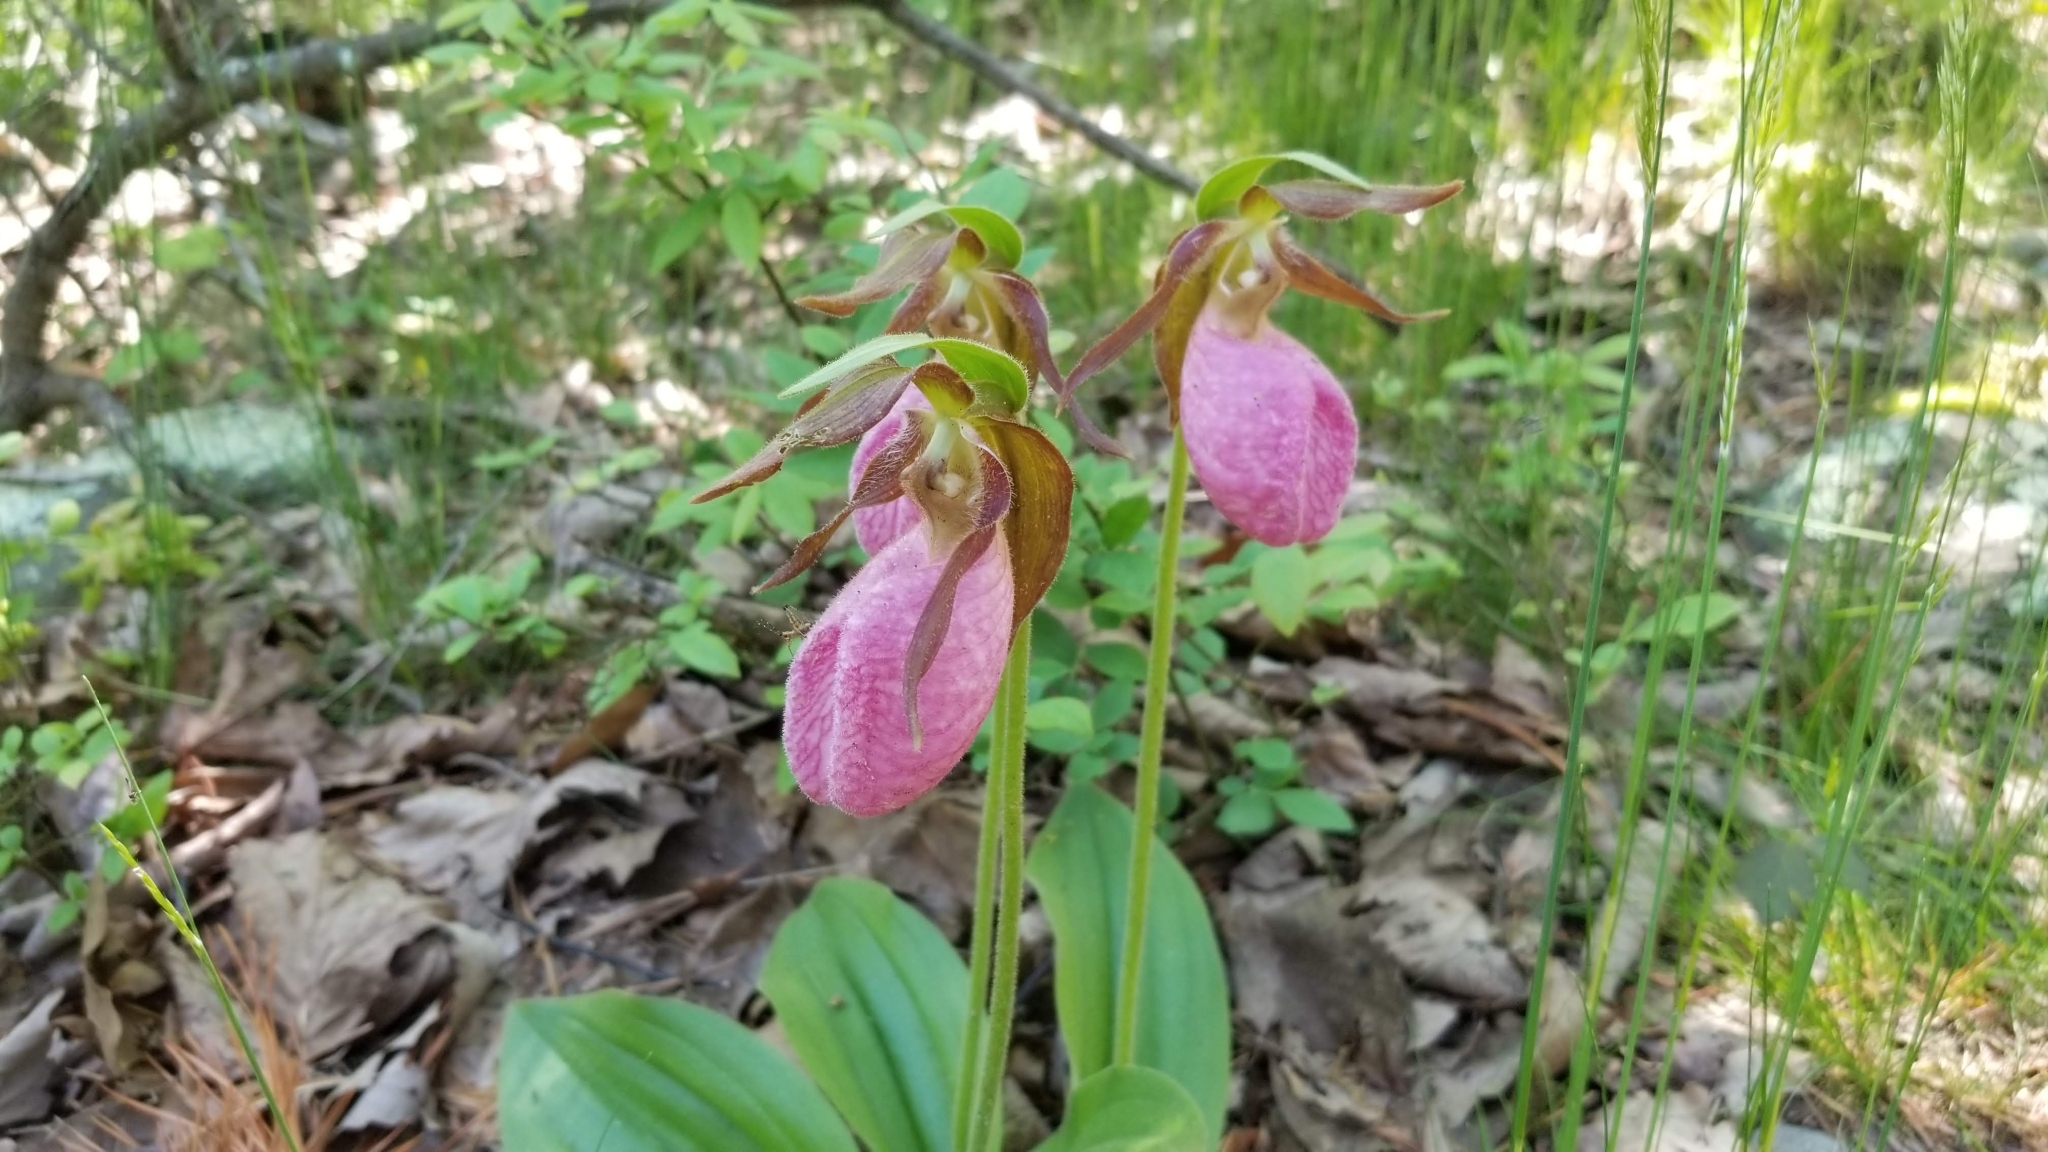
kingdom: Plantae
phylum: Tracheophyta
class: Liliopsida
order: Asparagales
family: Orchidaceae
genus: Cypripedium
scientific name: Cypripedium acaule
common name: Pink lady's-slipper
